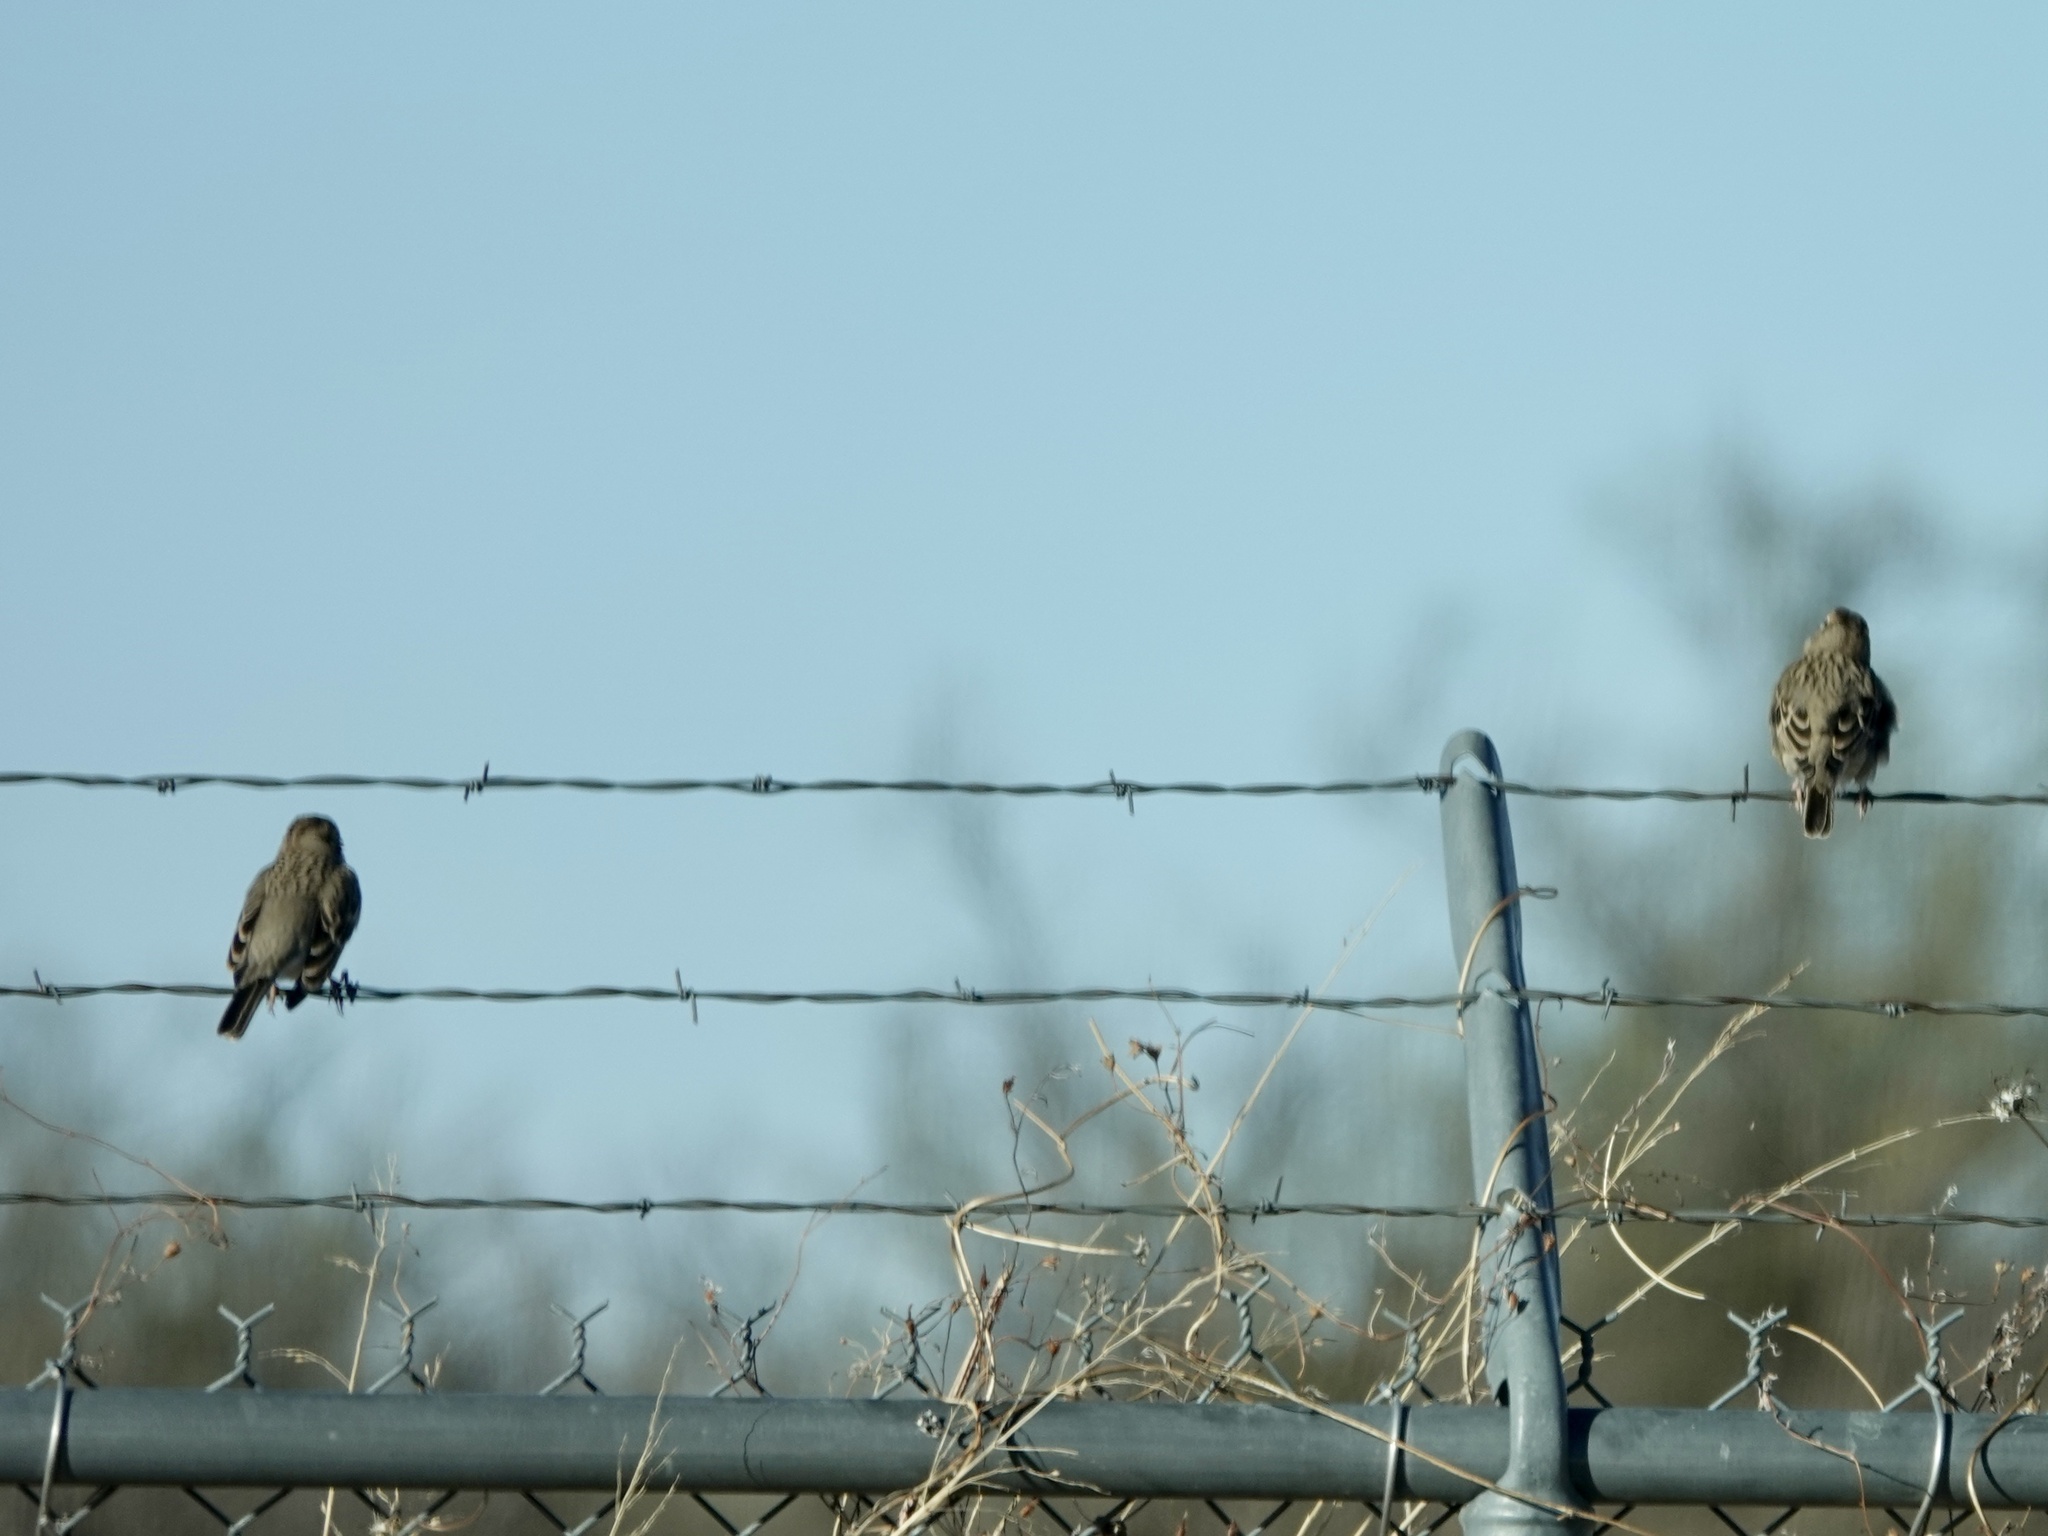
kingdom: Animalia
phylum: Chordata
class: Aves
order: Passeriformes
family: Passerellidae
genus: Chondestes
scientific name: Chondestes grammacus
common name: Lark sparrow
